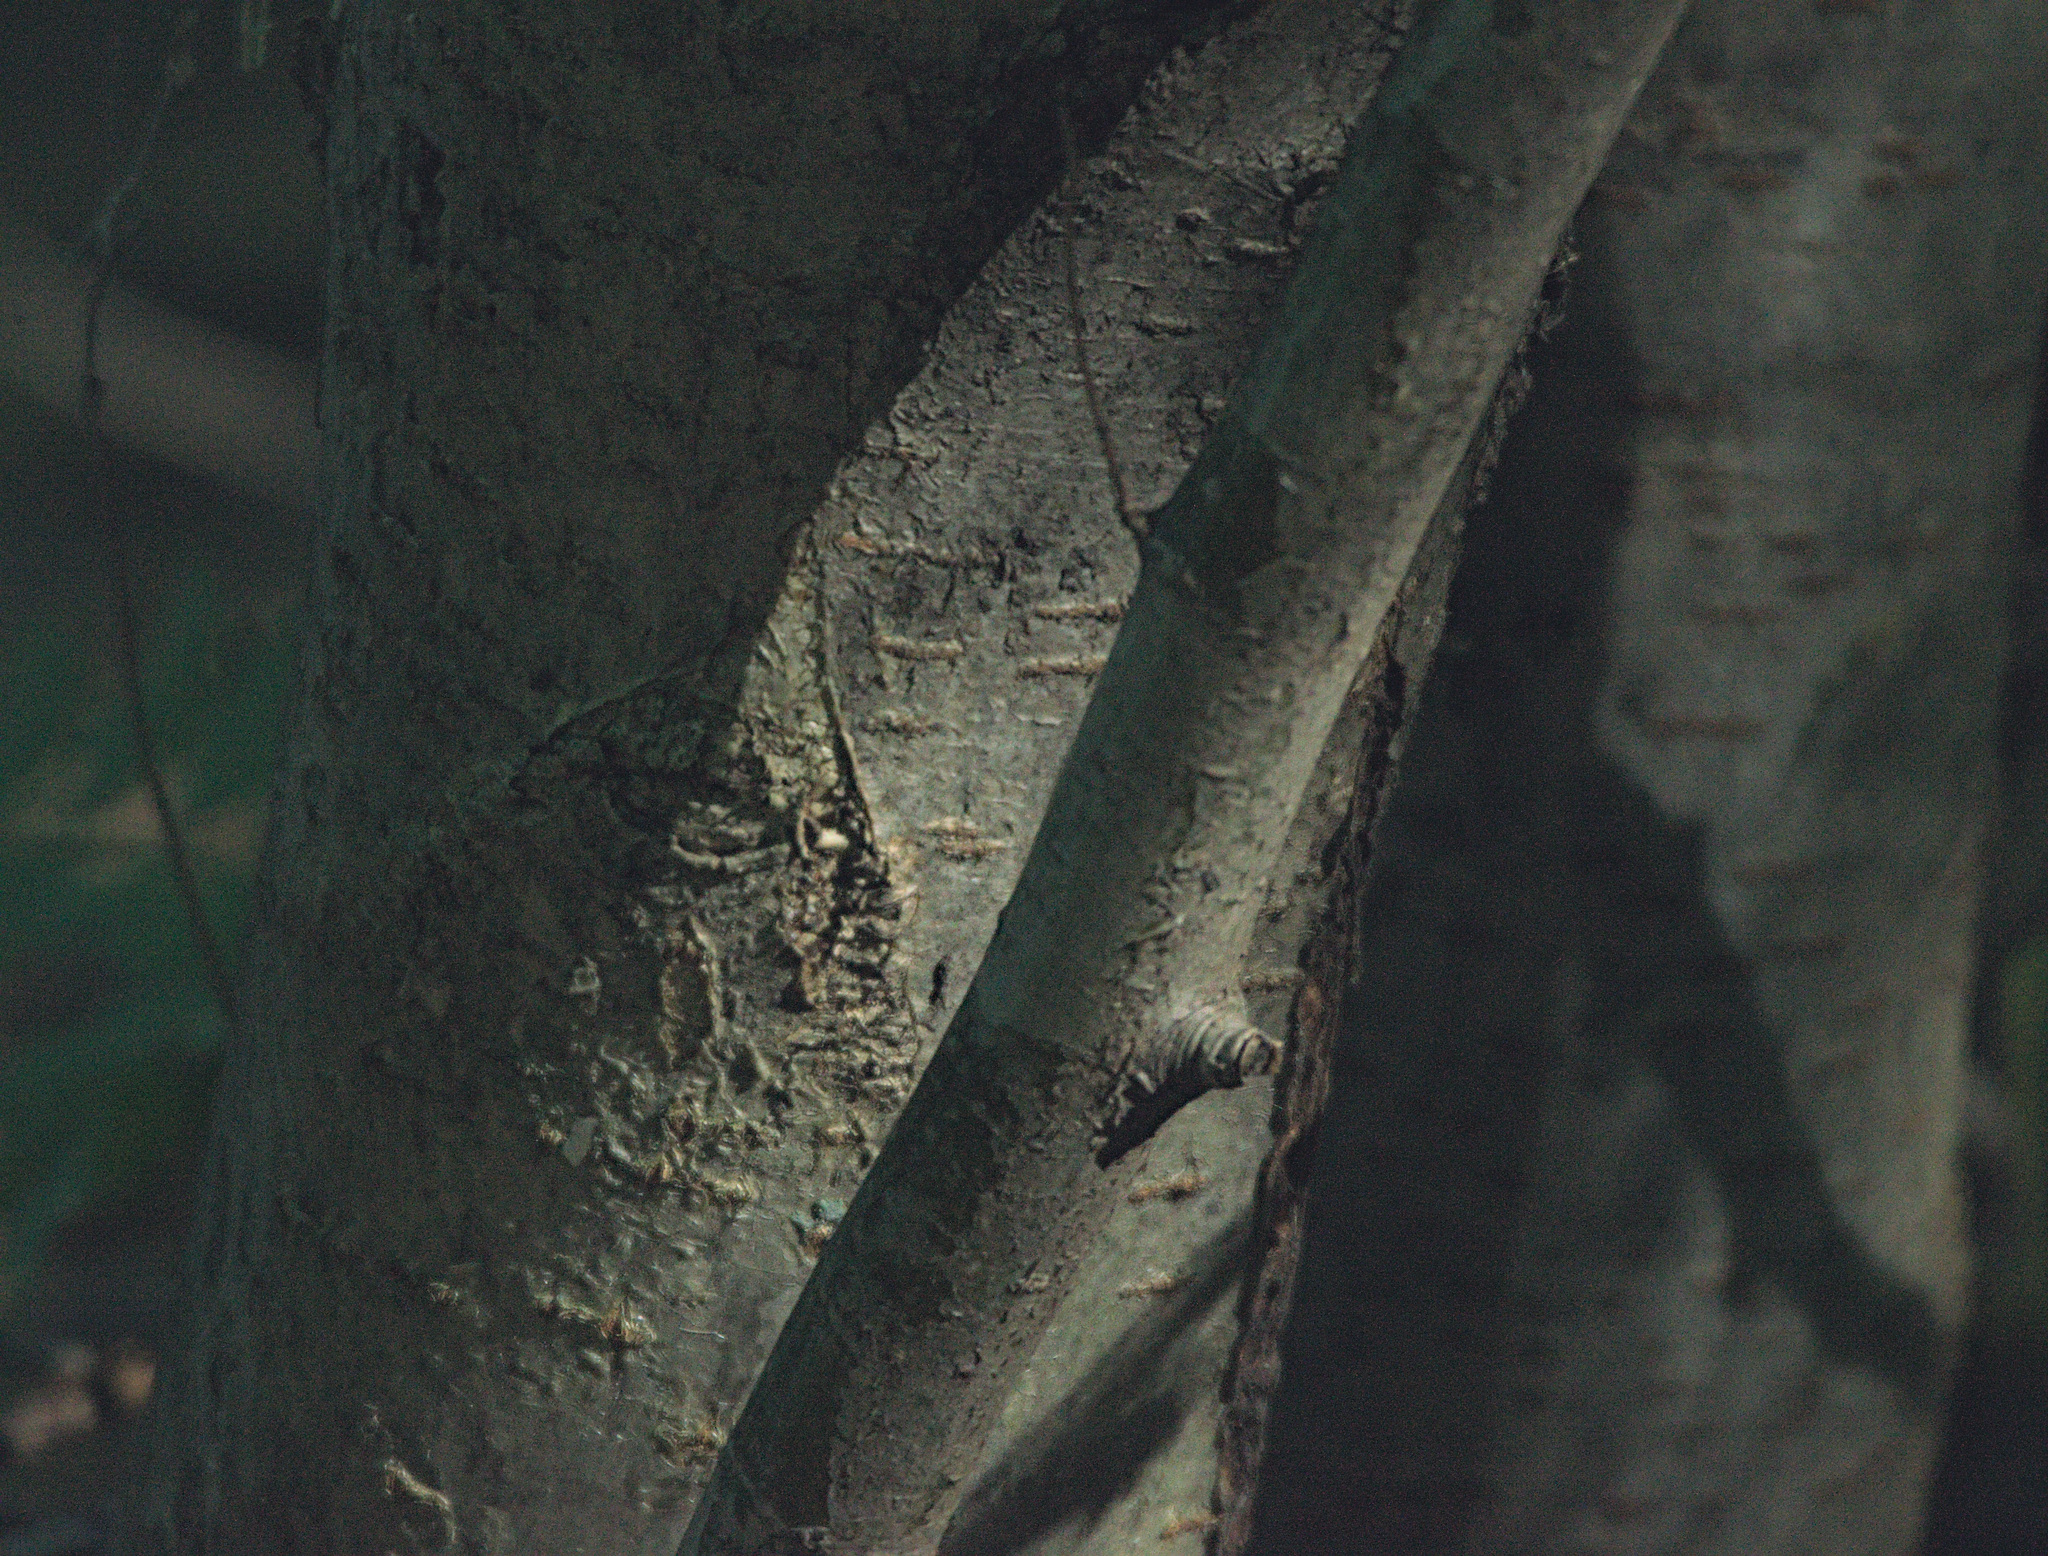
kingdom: Plantae
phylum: Tracheophyta
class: Magnoliopsida
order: Rosales
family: Rosaceae
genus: Sorbus
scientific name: Sorbus aucuparia
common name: Rowan
